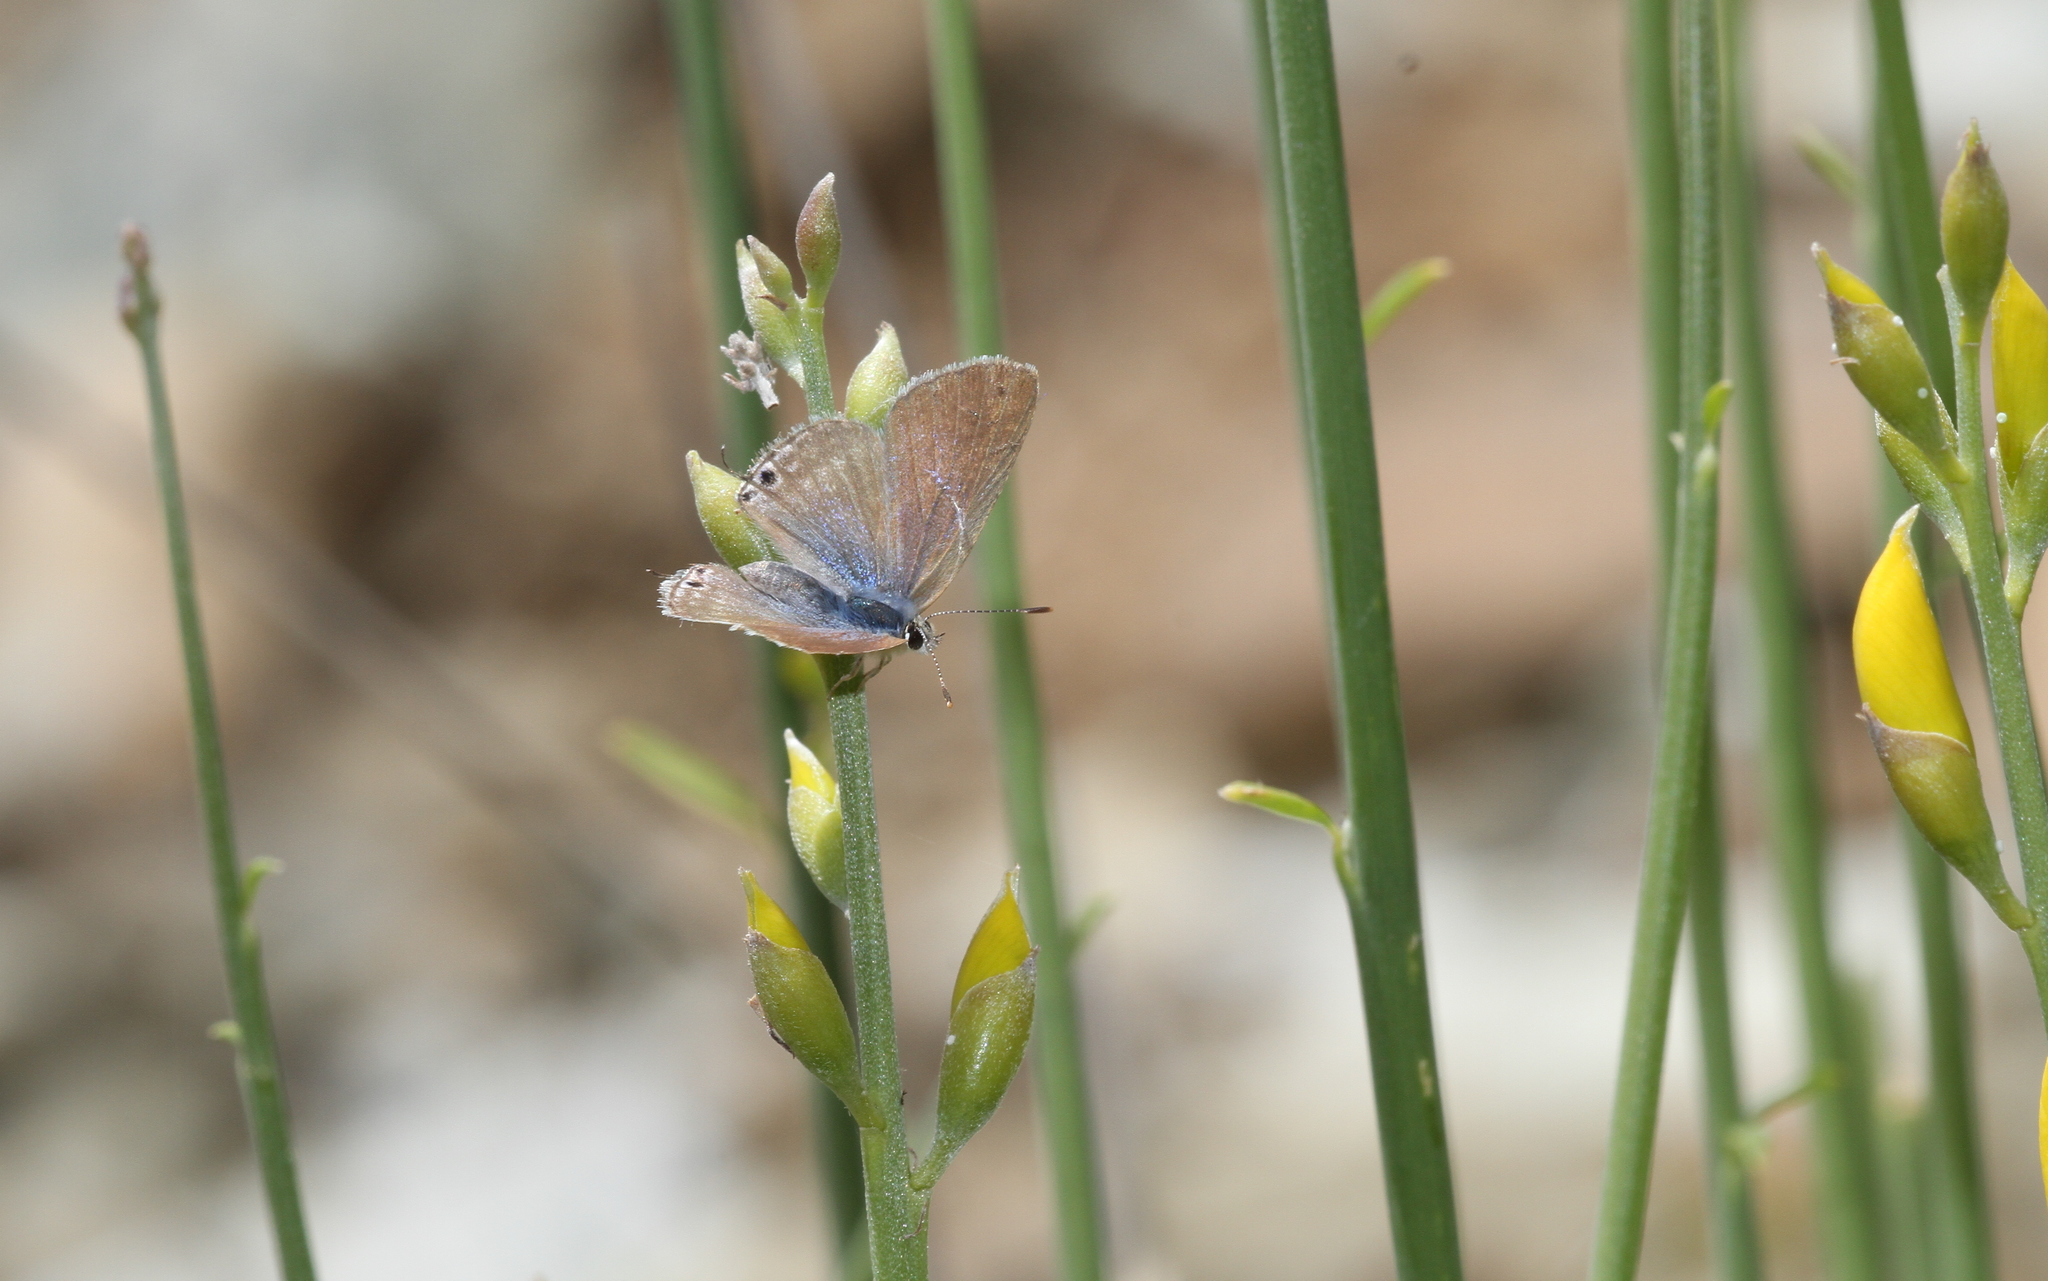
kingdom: Animalia
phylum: Arthropoda
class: Insecta
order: Lepidoptera
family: Lycaenidae
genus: Lampides
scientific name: Lampides boeticus
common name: Long-tailed blue
